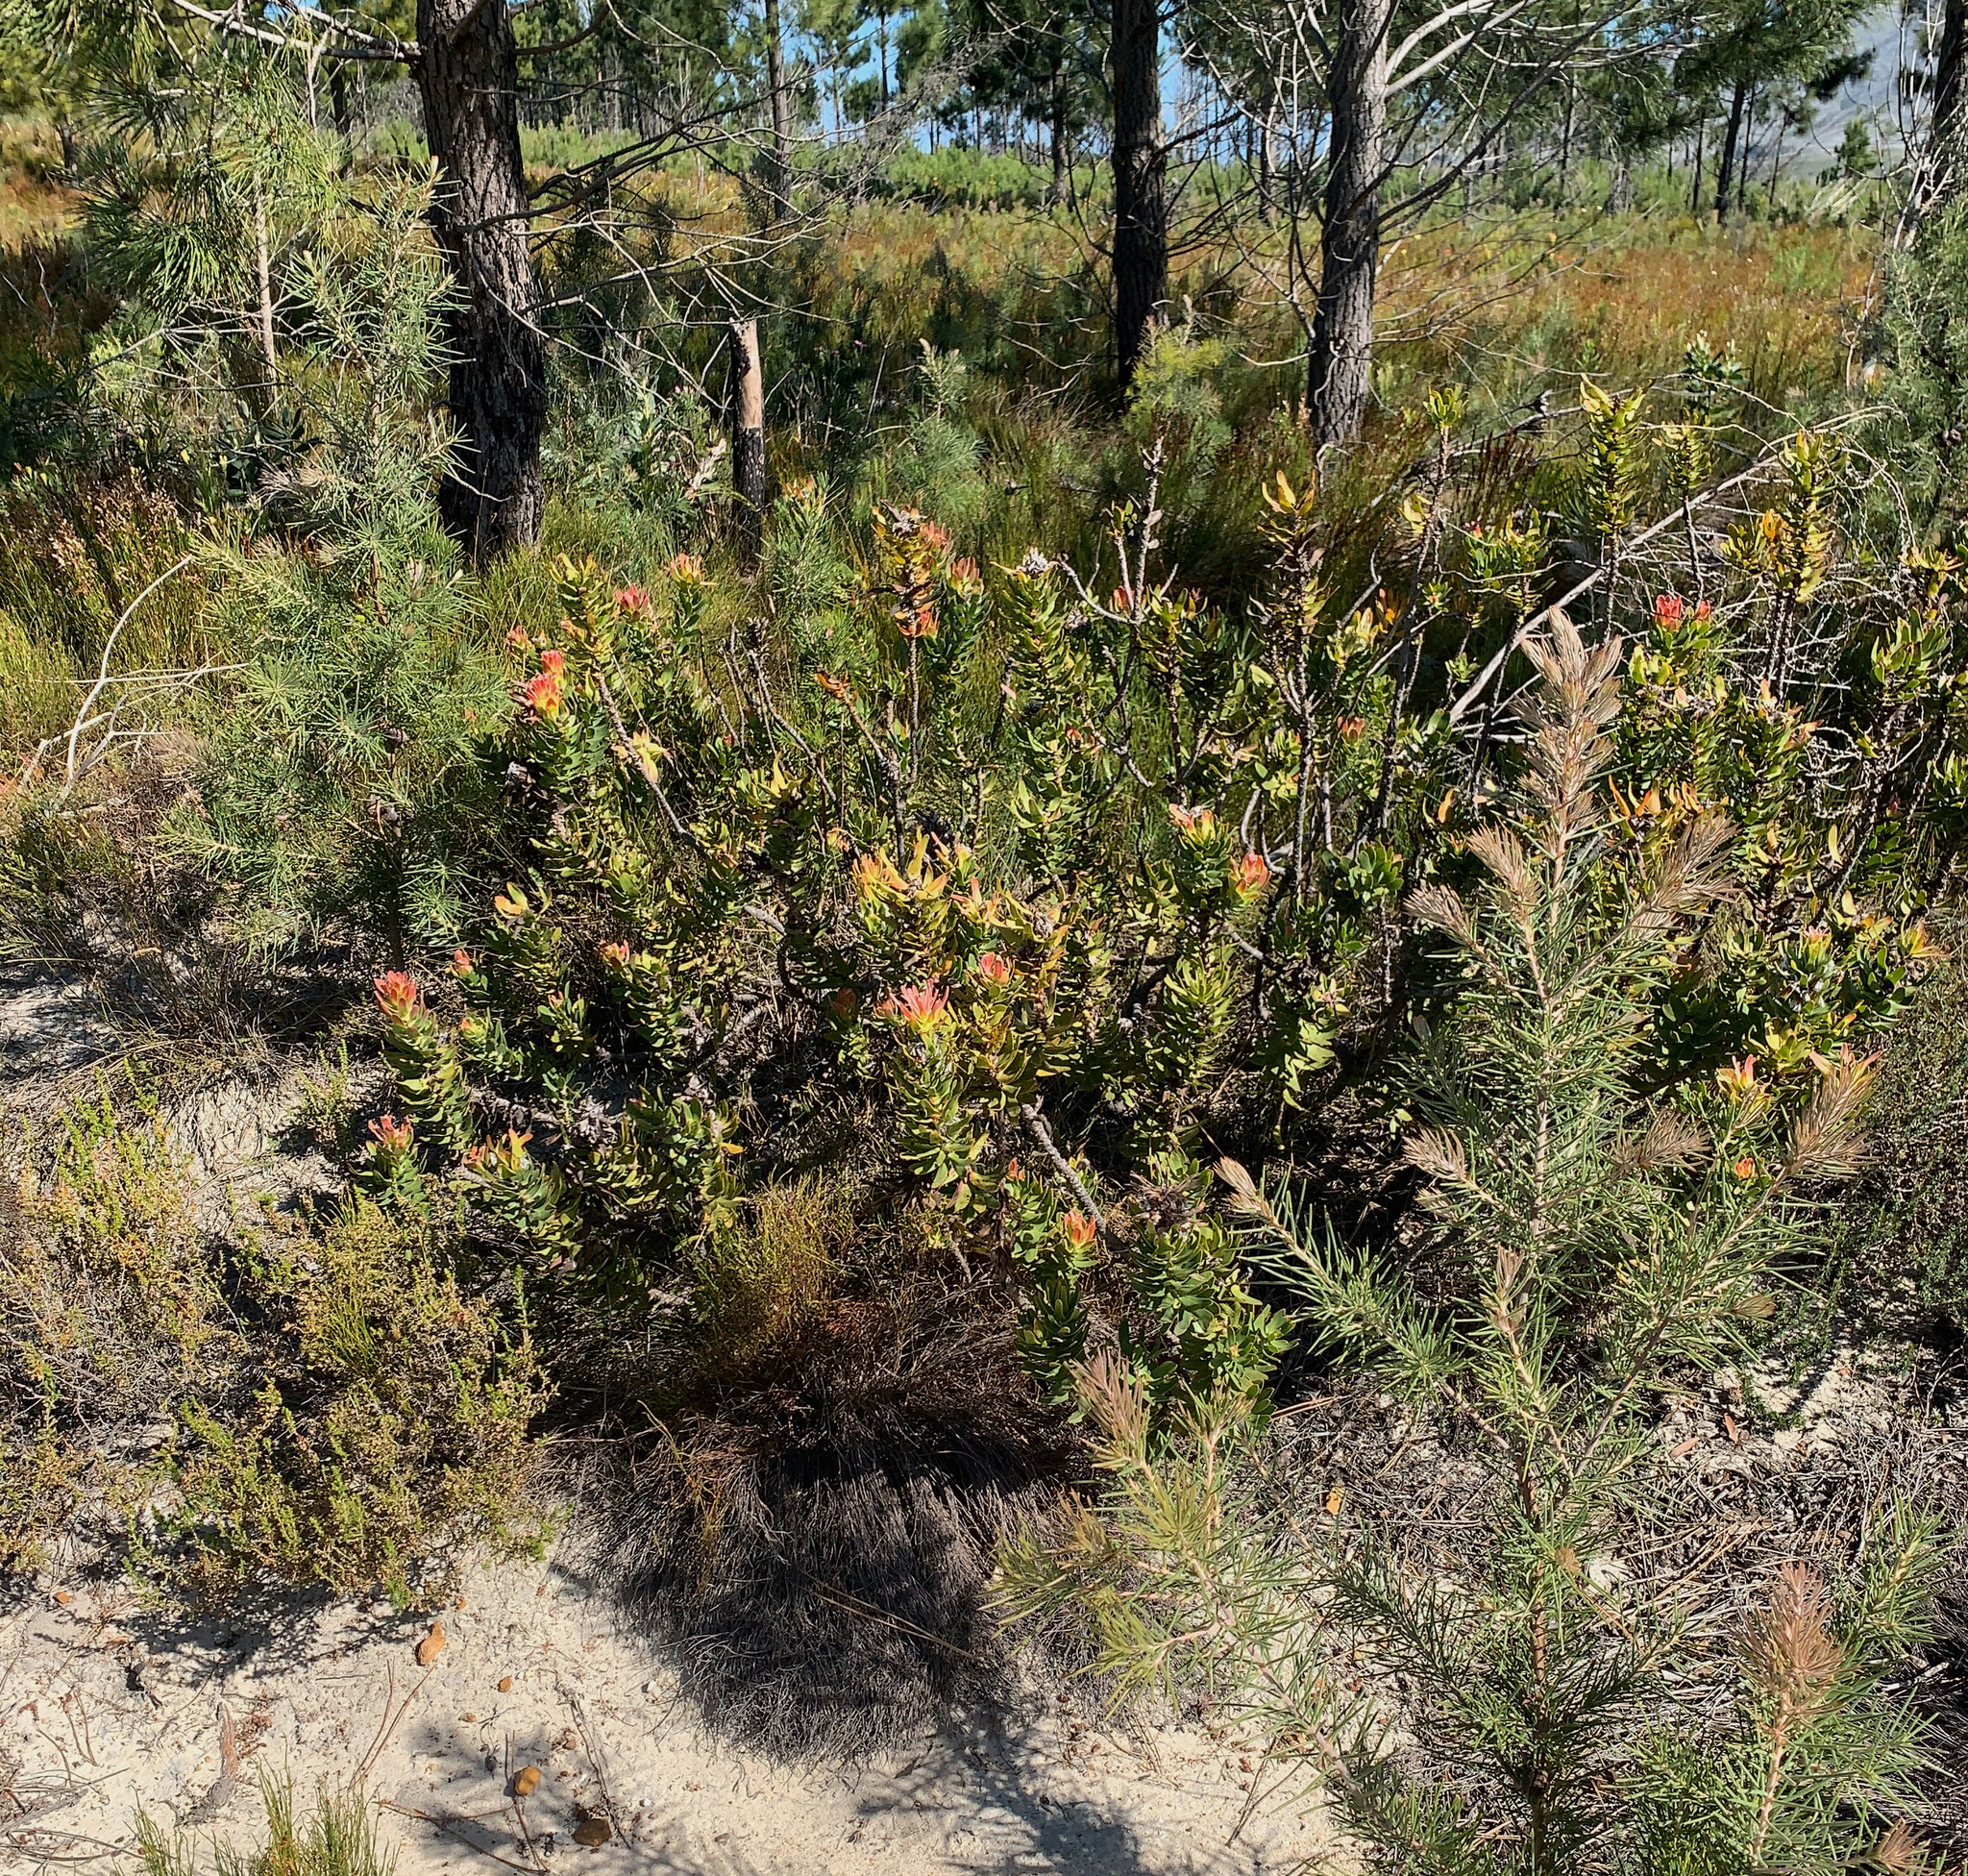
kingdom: Plantae
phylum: Tracheophyta
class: Magnoliopsida
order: Proteales
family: Proteaceae
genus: Mimetes
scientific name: Mimetes cucullatus
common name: Common pagoda
